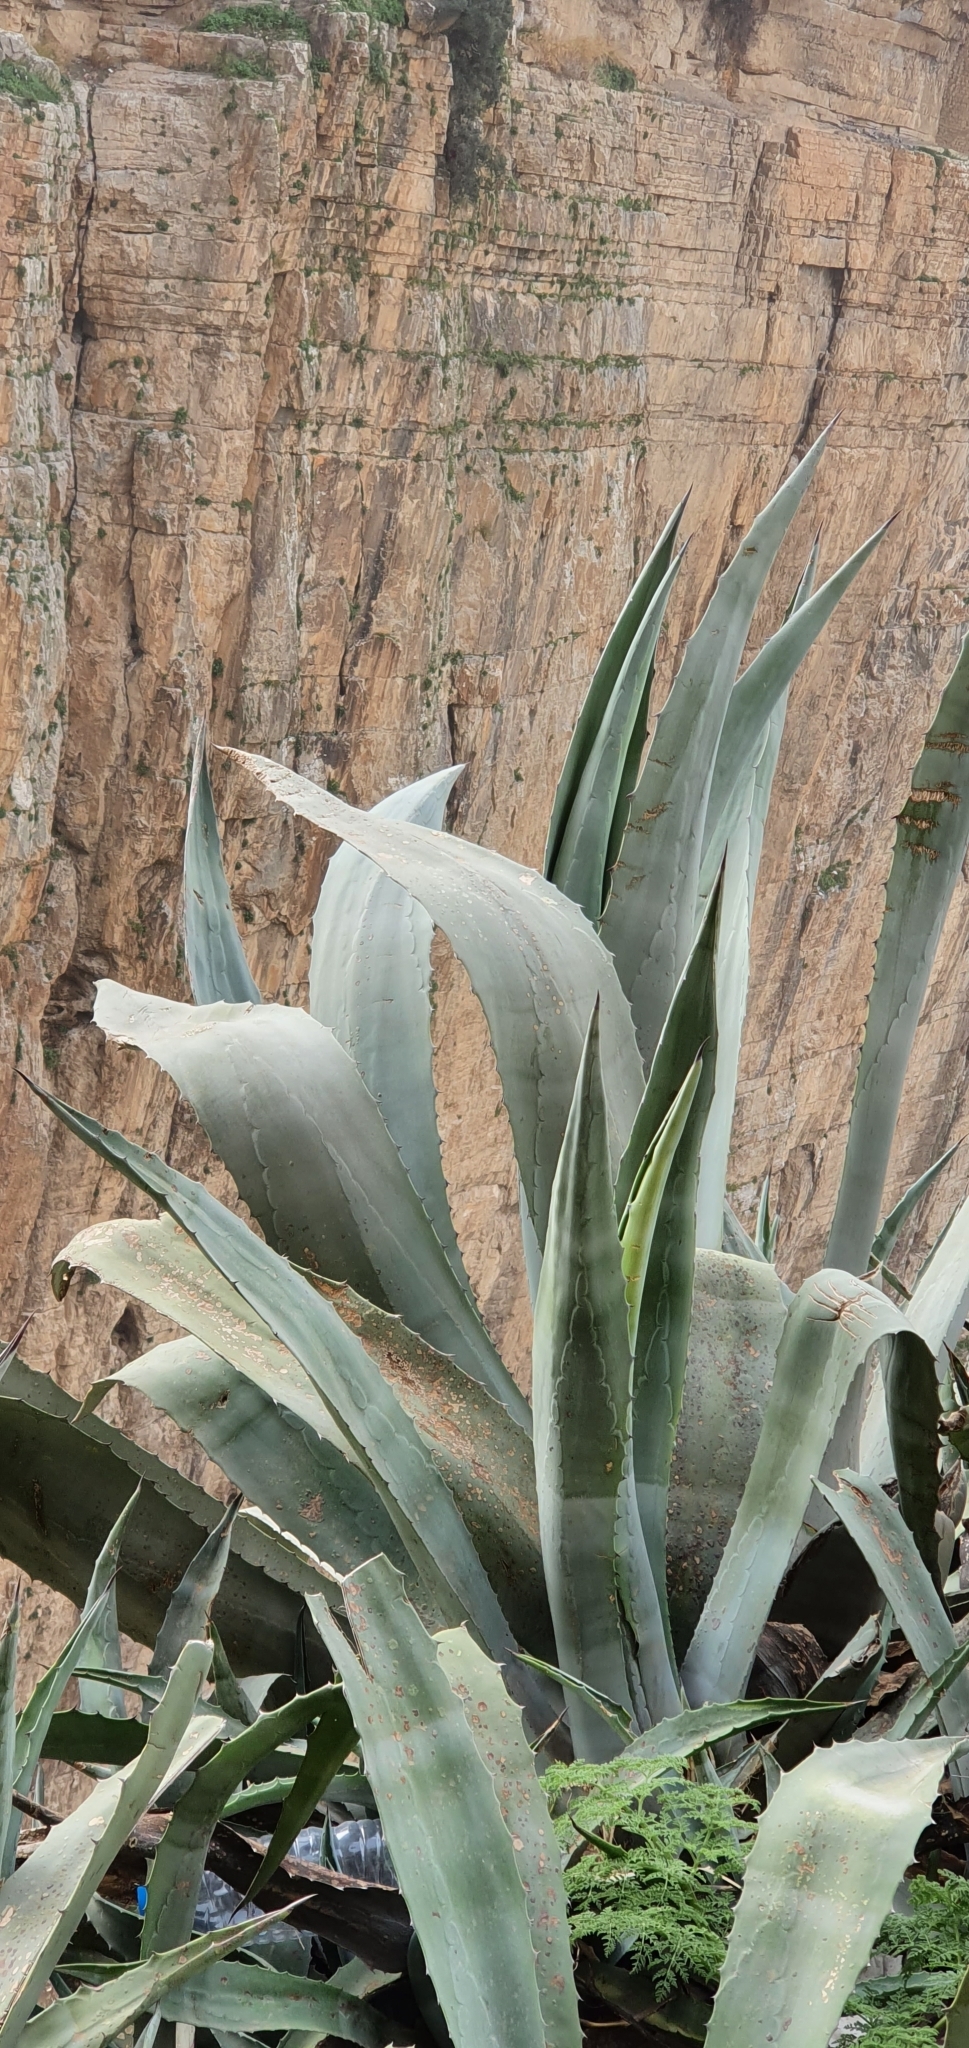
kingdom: Plantae
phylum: Tracheophyta
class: Liliopsida
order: Asparagales
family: Asparagaceae
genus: Agave
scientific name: Agave americana
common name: Centuryplant
